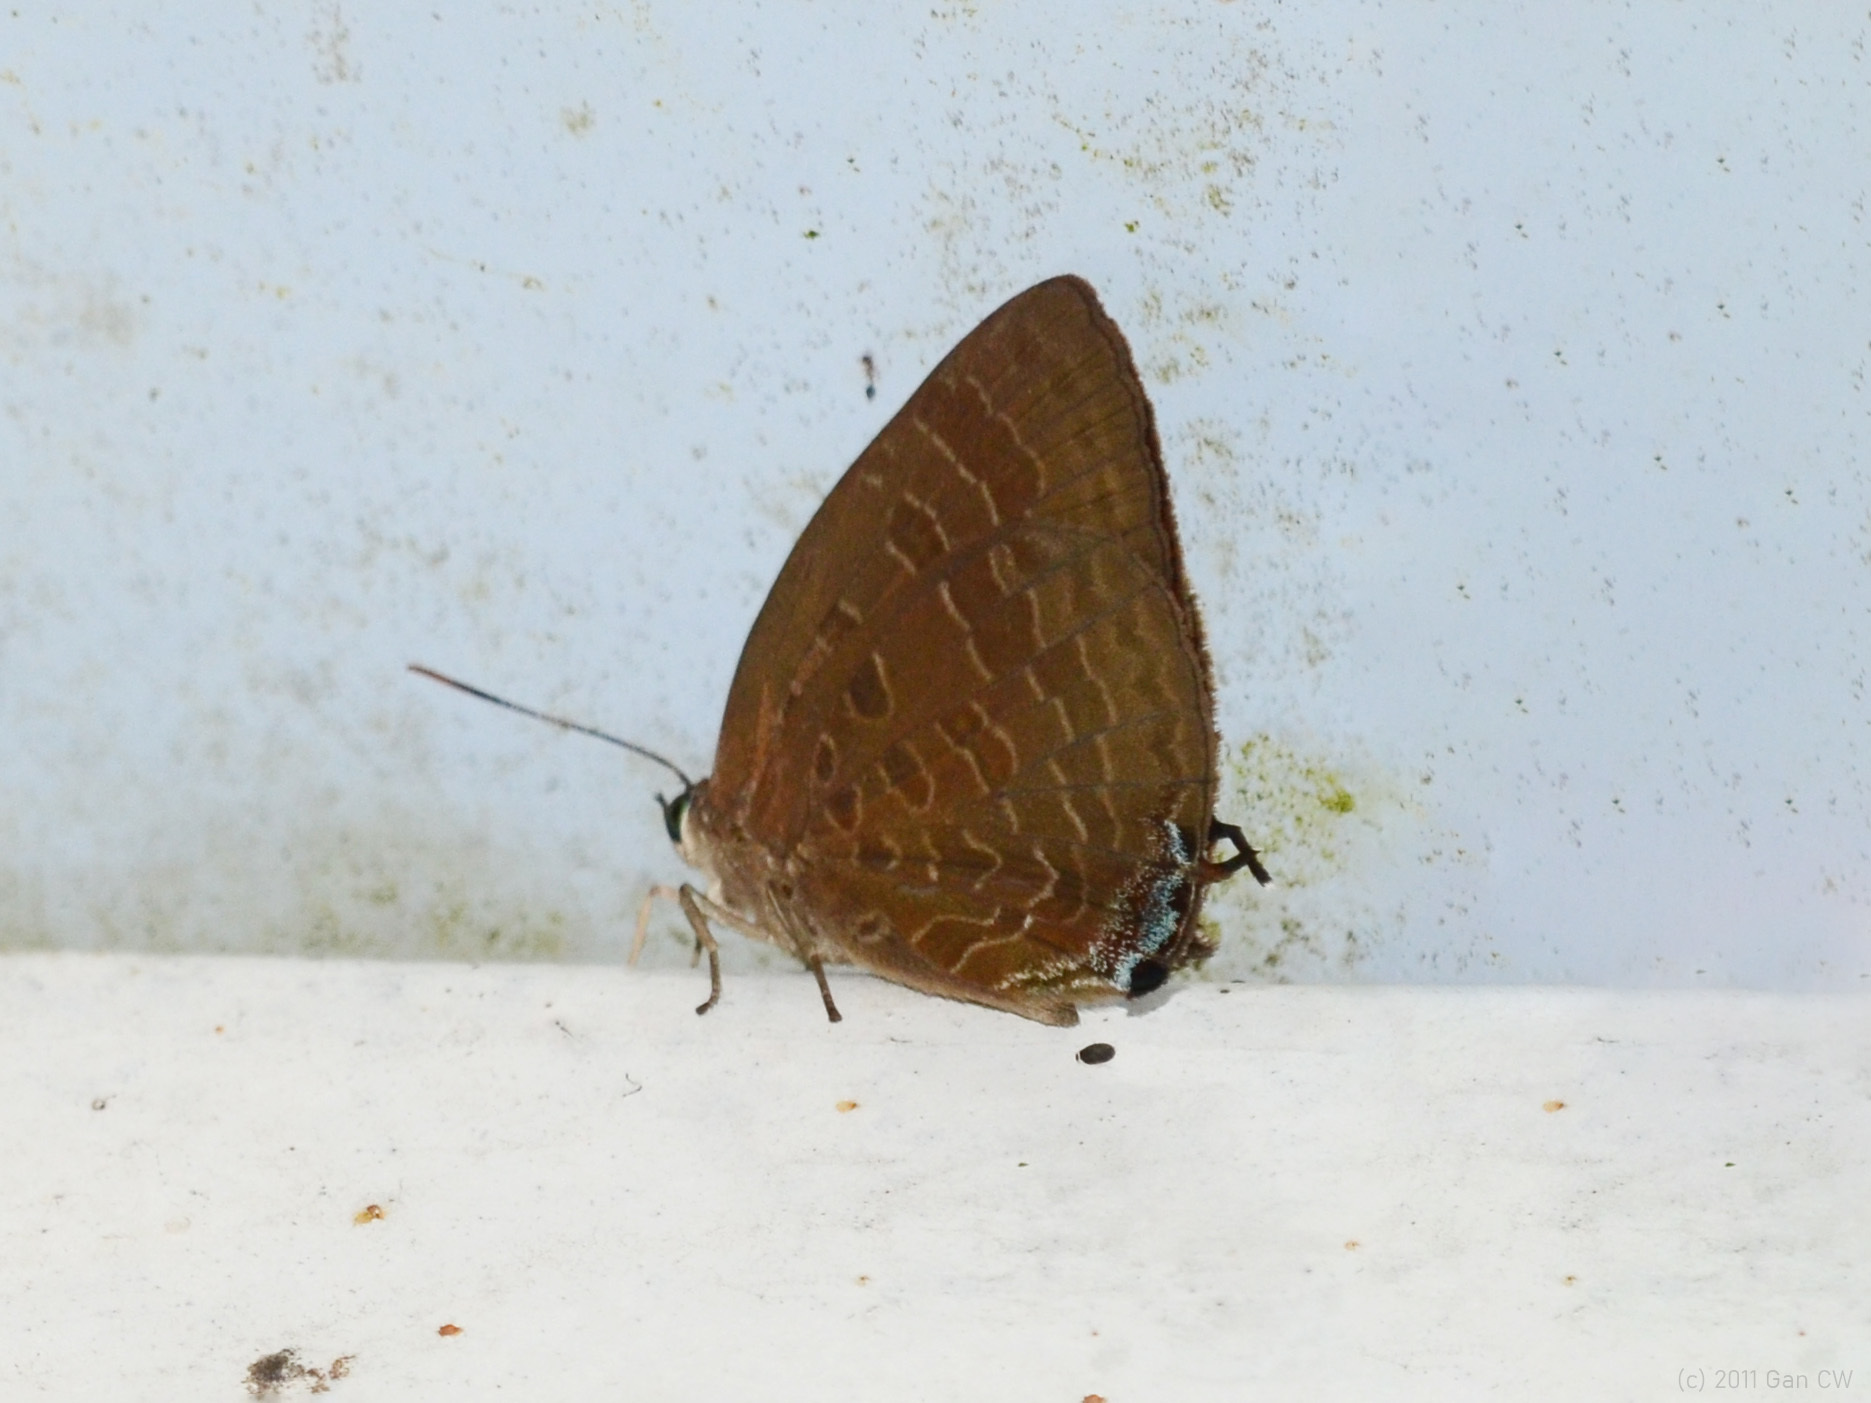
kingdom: Animalia
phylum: Arthropoda
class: Insecta
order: Lepidoptera
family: Lycaenidae
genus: Arhopala
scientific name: Arhopala ace
